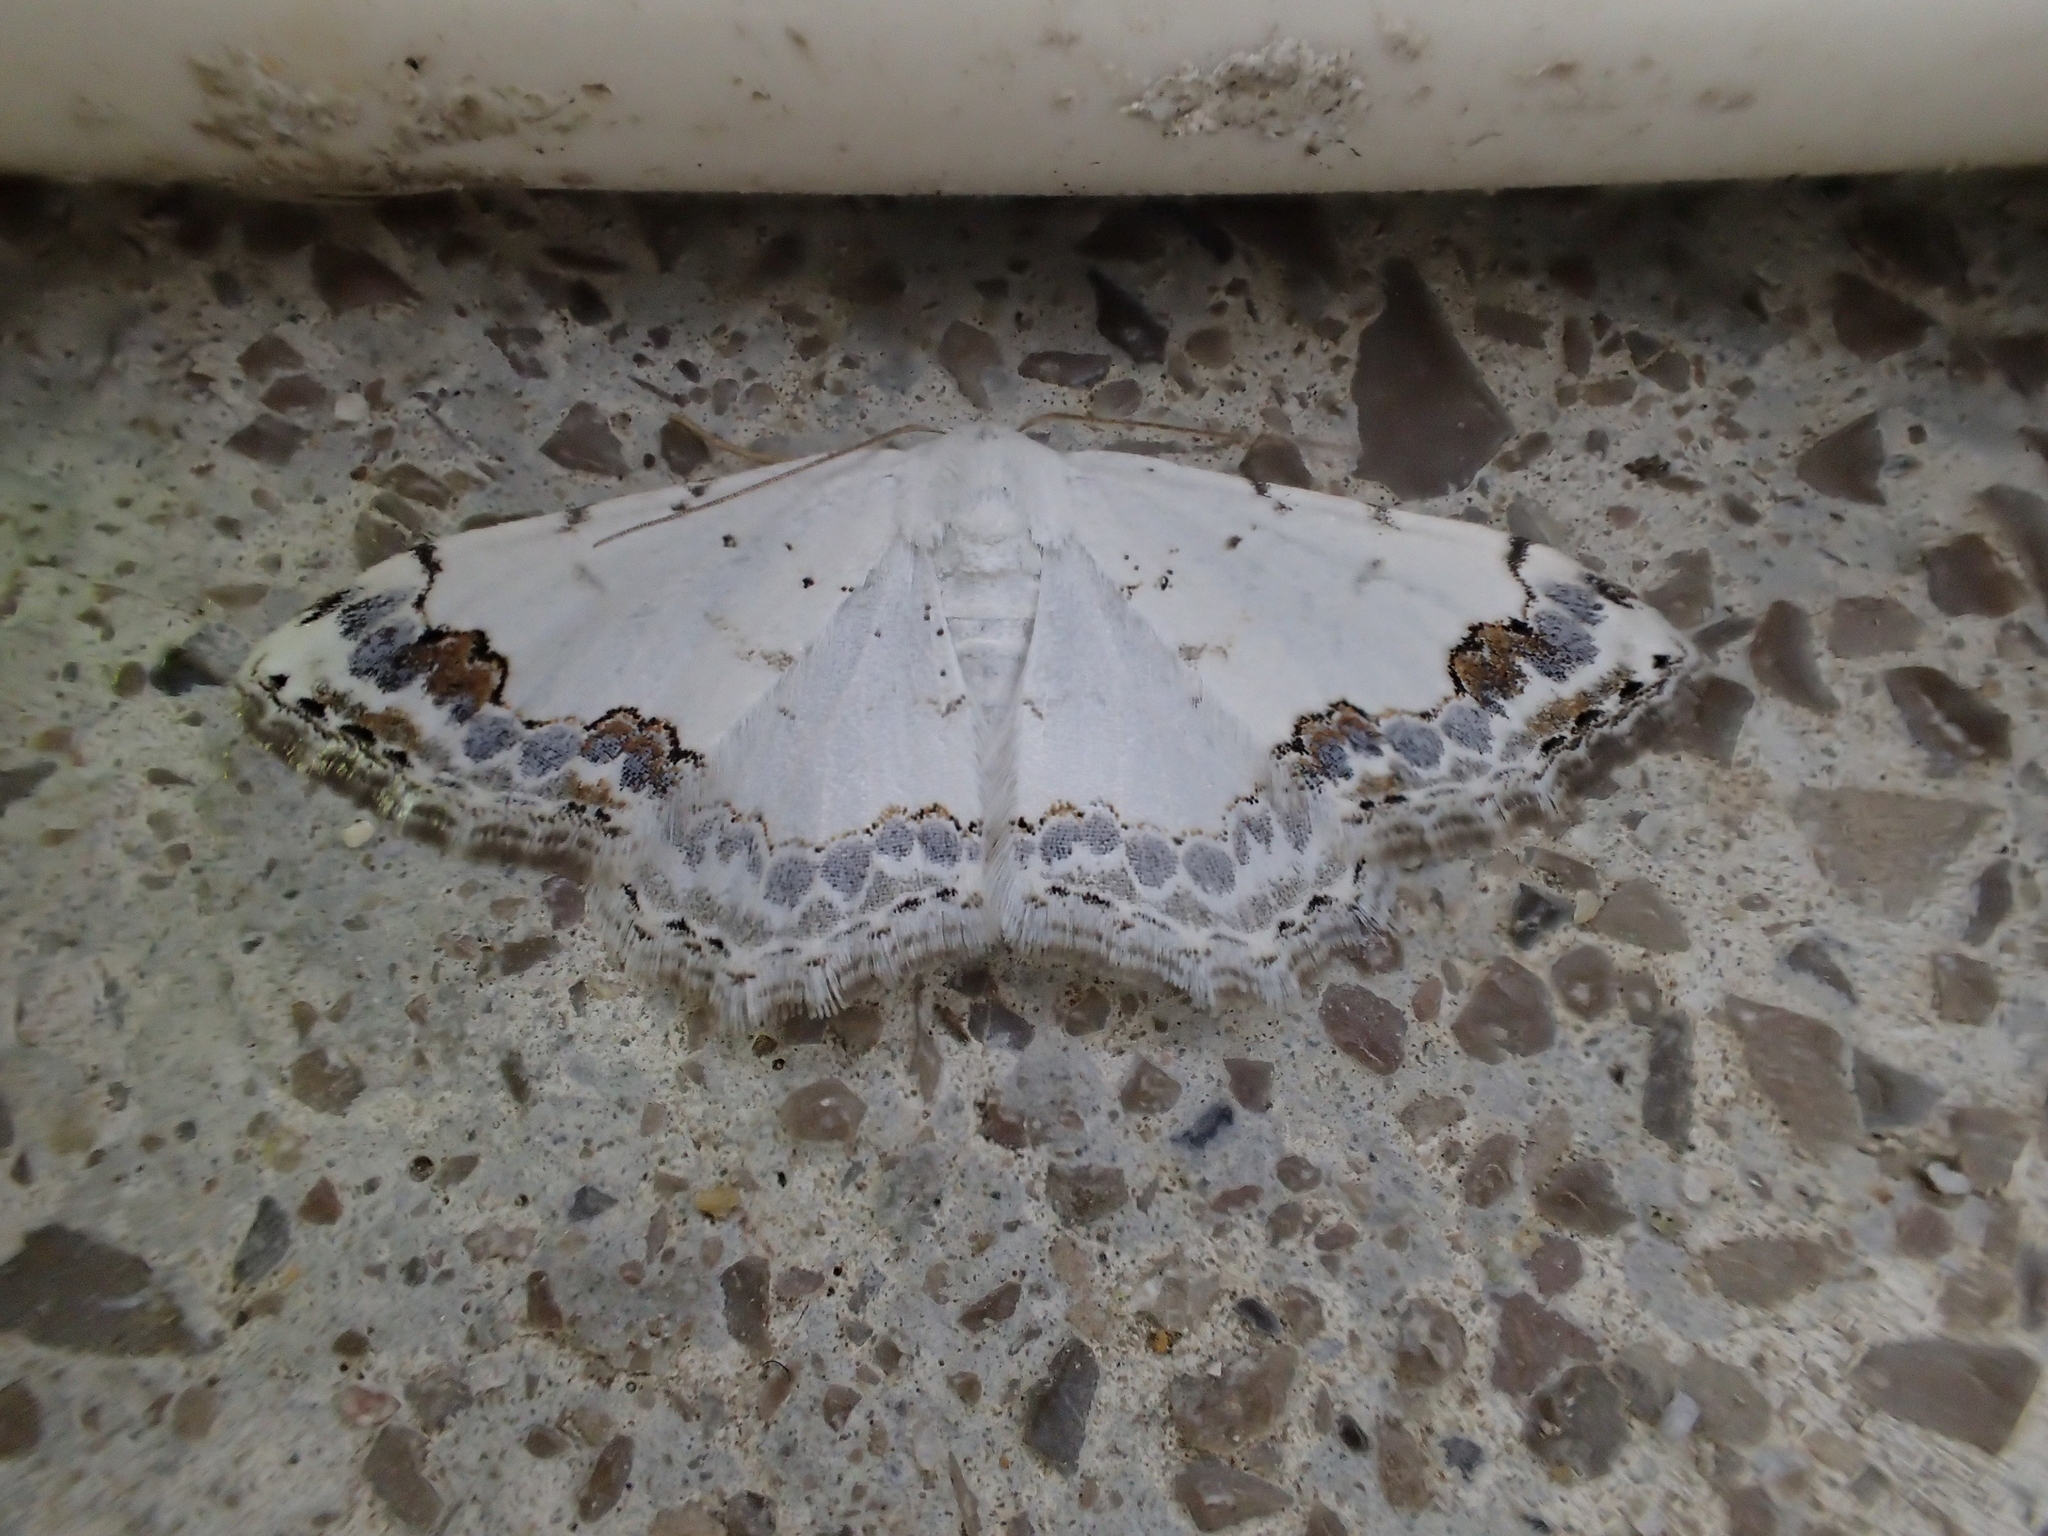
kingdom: Animalia
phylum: Arthropoda
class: Insecta
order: Lepidoptera
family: Geometridae
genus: Scopula
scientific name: Scopula decorata
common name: Middle lace border
